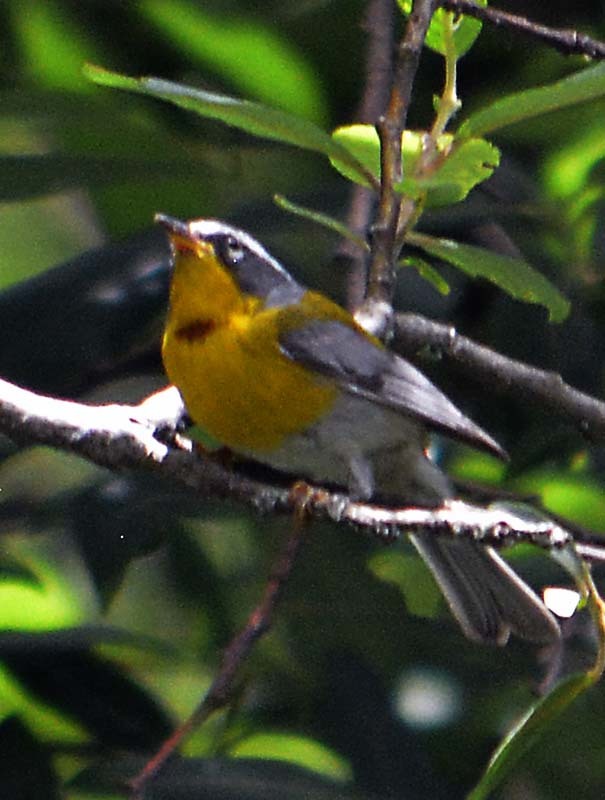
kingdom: Animalia
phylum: Chordata
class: Aves
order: Passeriformes
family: Parulidae
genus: Oreothlypis
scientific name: Oreothlypis superciliosa
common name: Crescent-chested warbler
